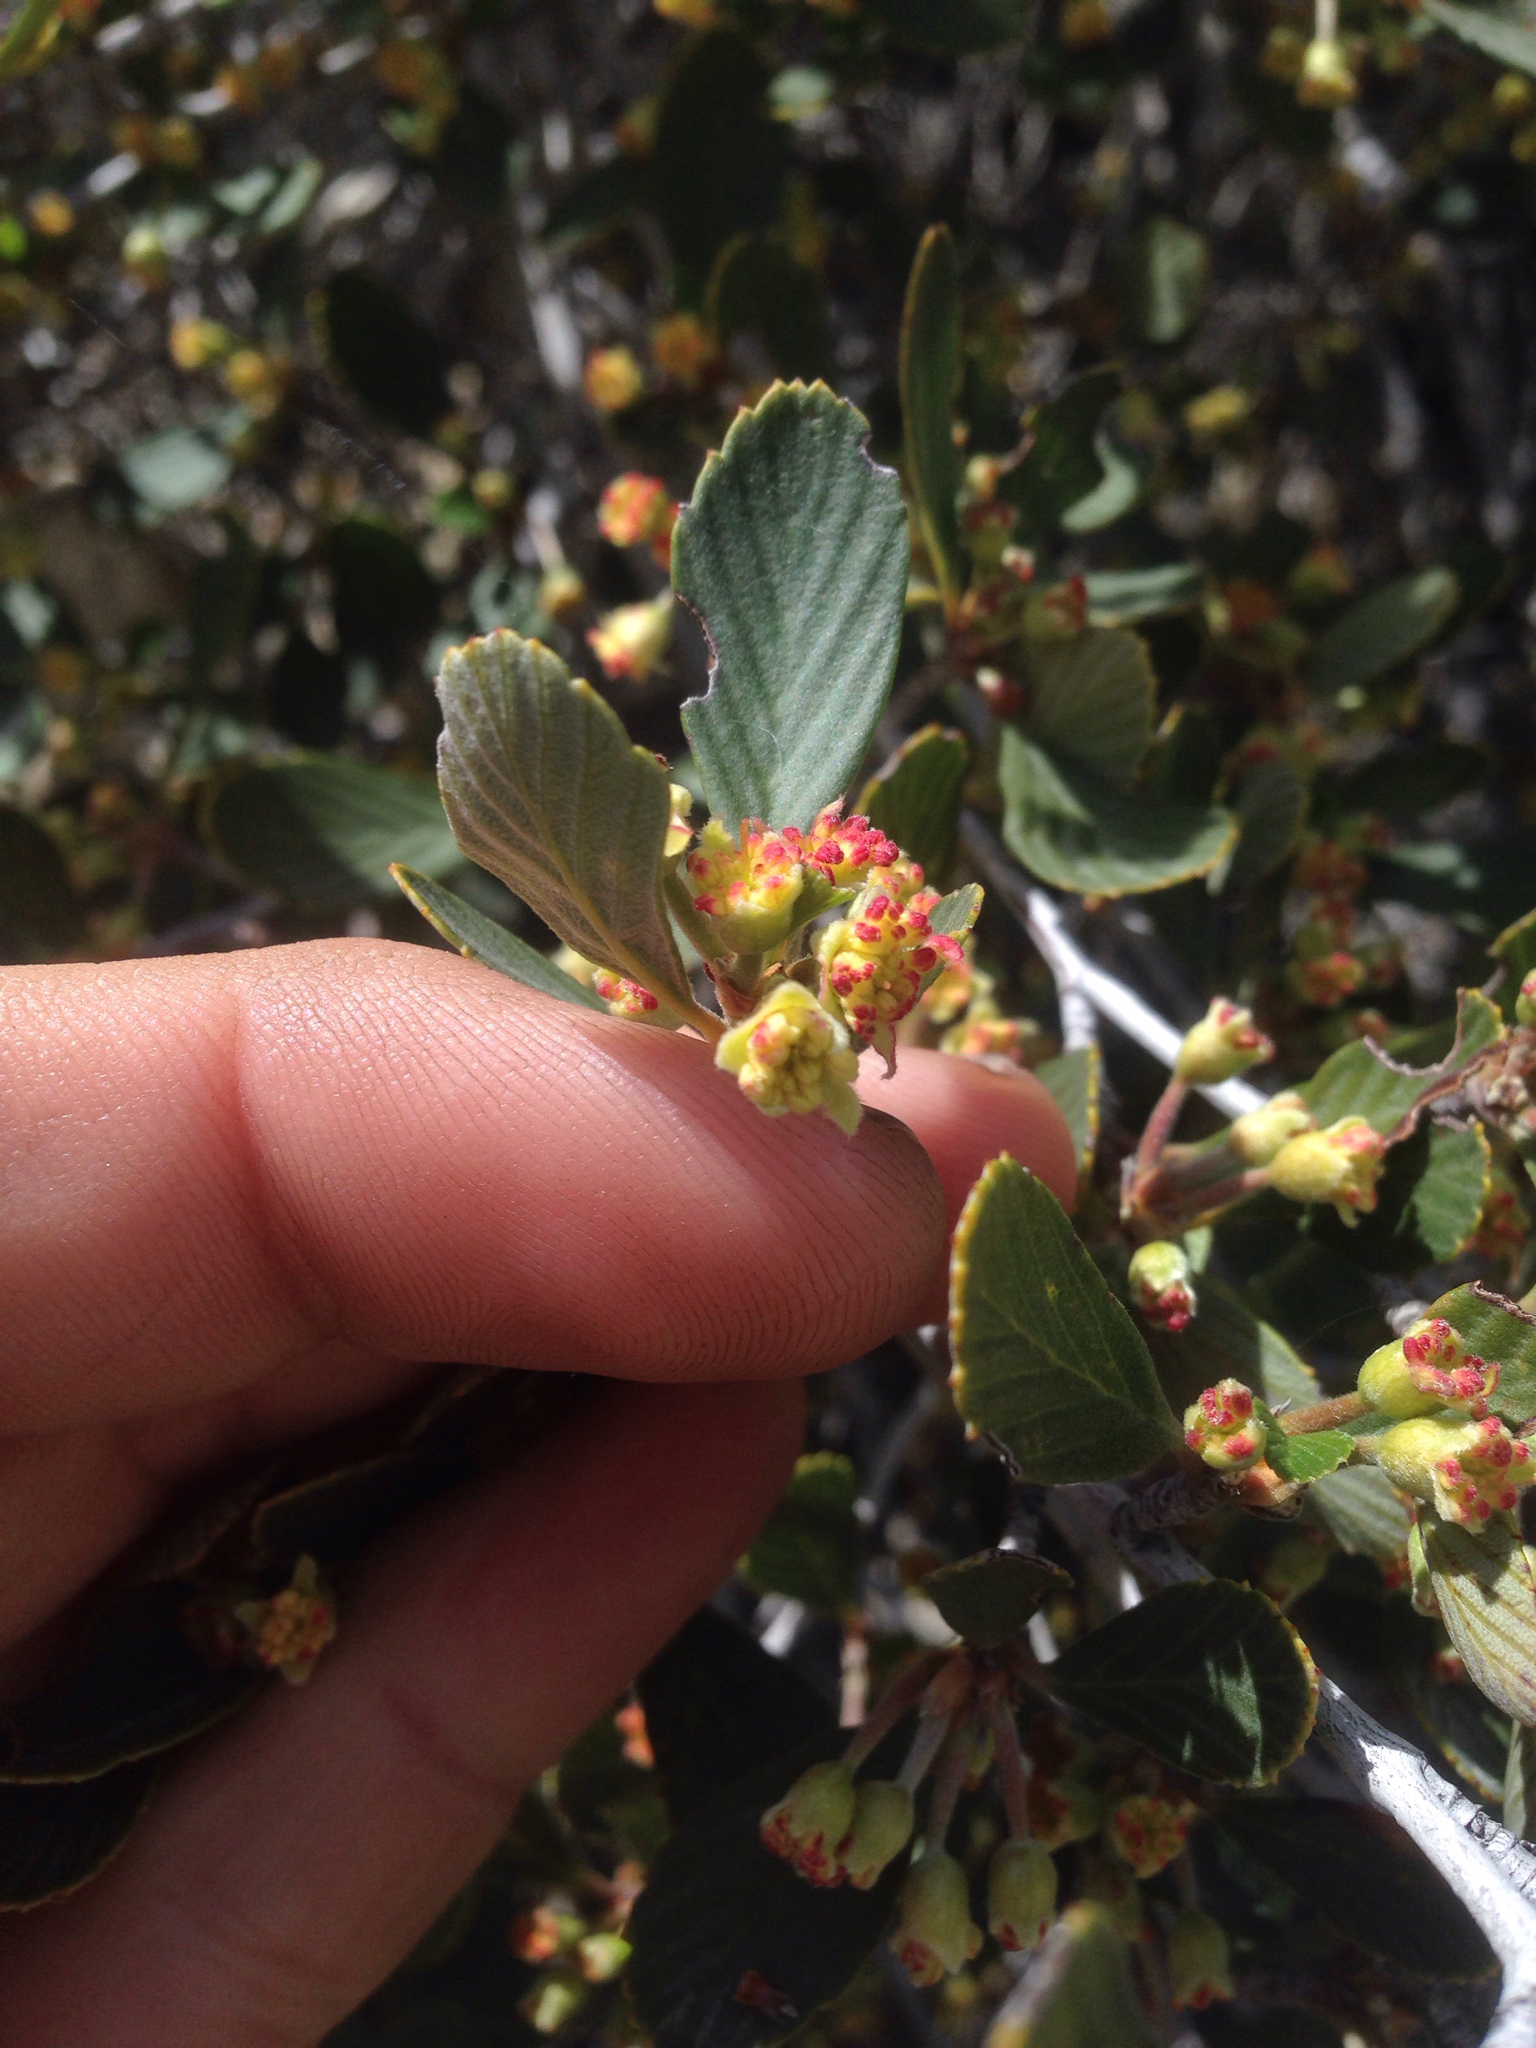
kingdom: Plantae
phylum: Tracheophyta
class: Magnoliopsida
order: Rosales
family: Rosaceae
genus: Cercocarpus
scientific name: Cercocarpus betuloides
